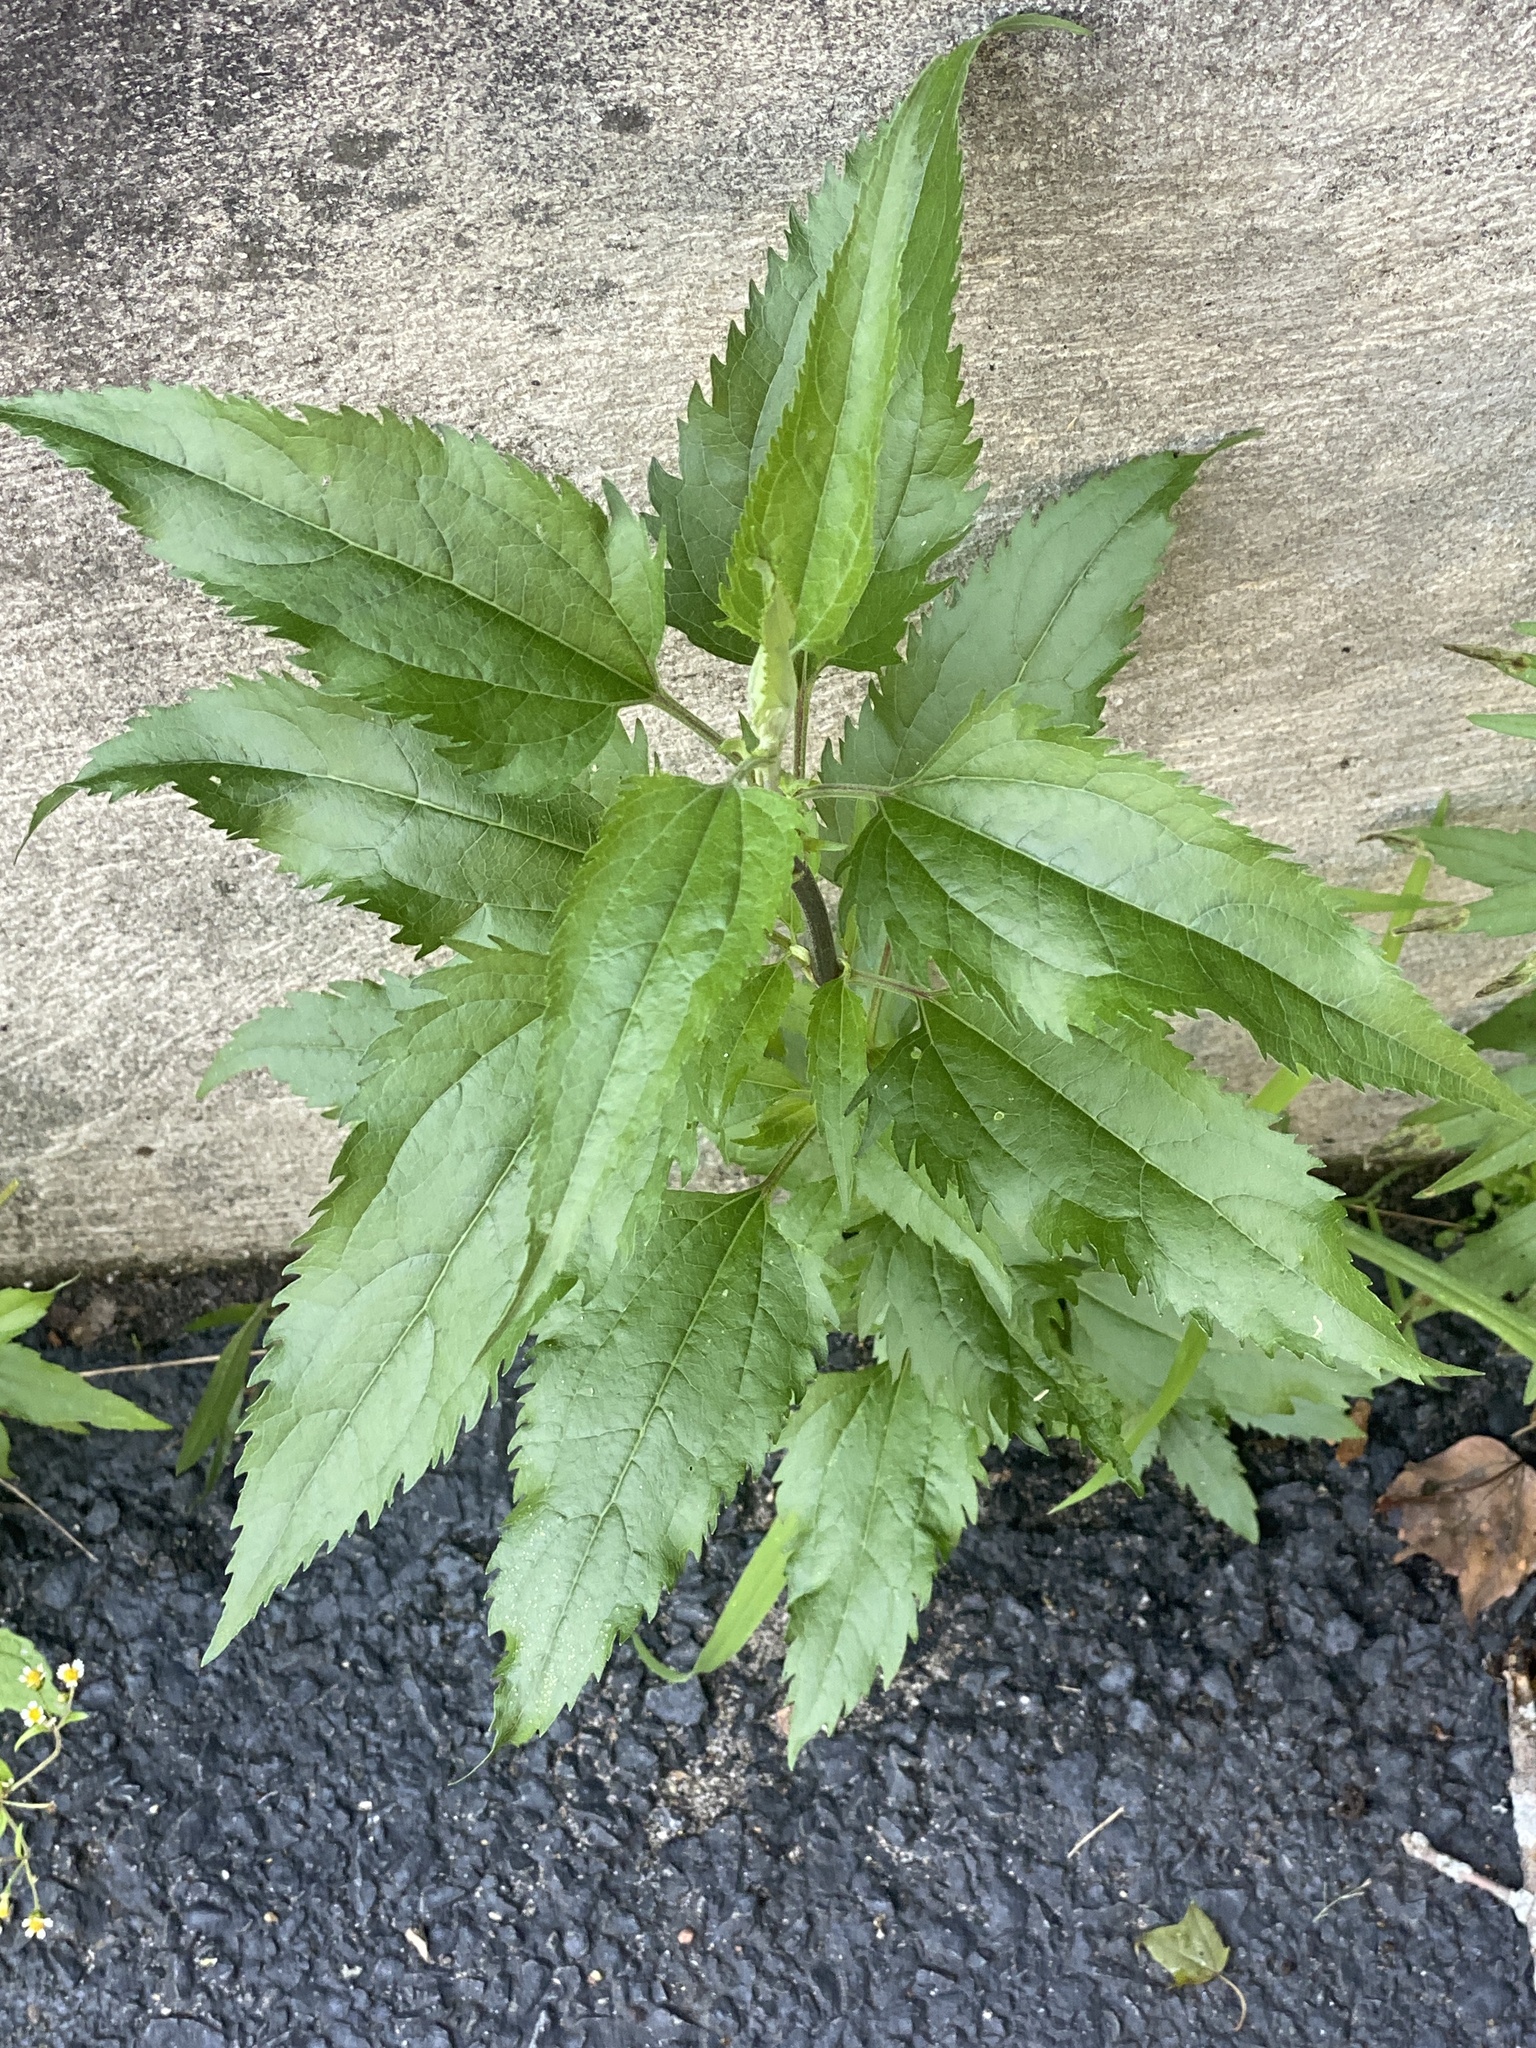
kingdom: Plantae
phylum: Tracheophyta
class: Magnoliopsida
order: Asterales
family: Asteraceae
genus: Eupatorium
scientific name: Eupatorium serotinum
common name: Late boneset
